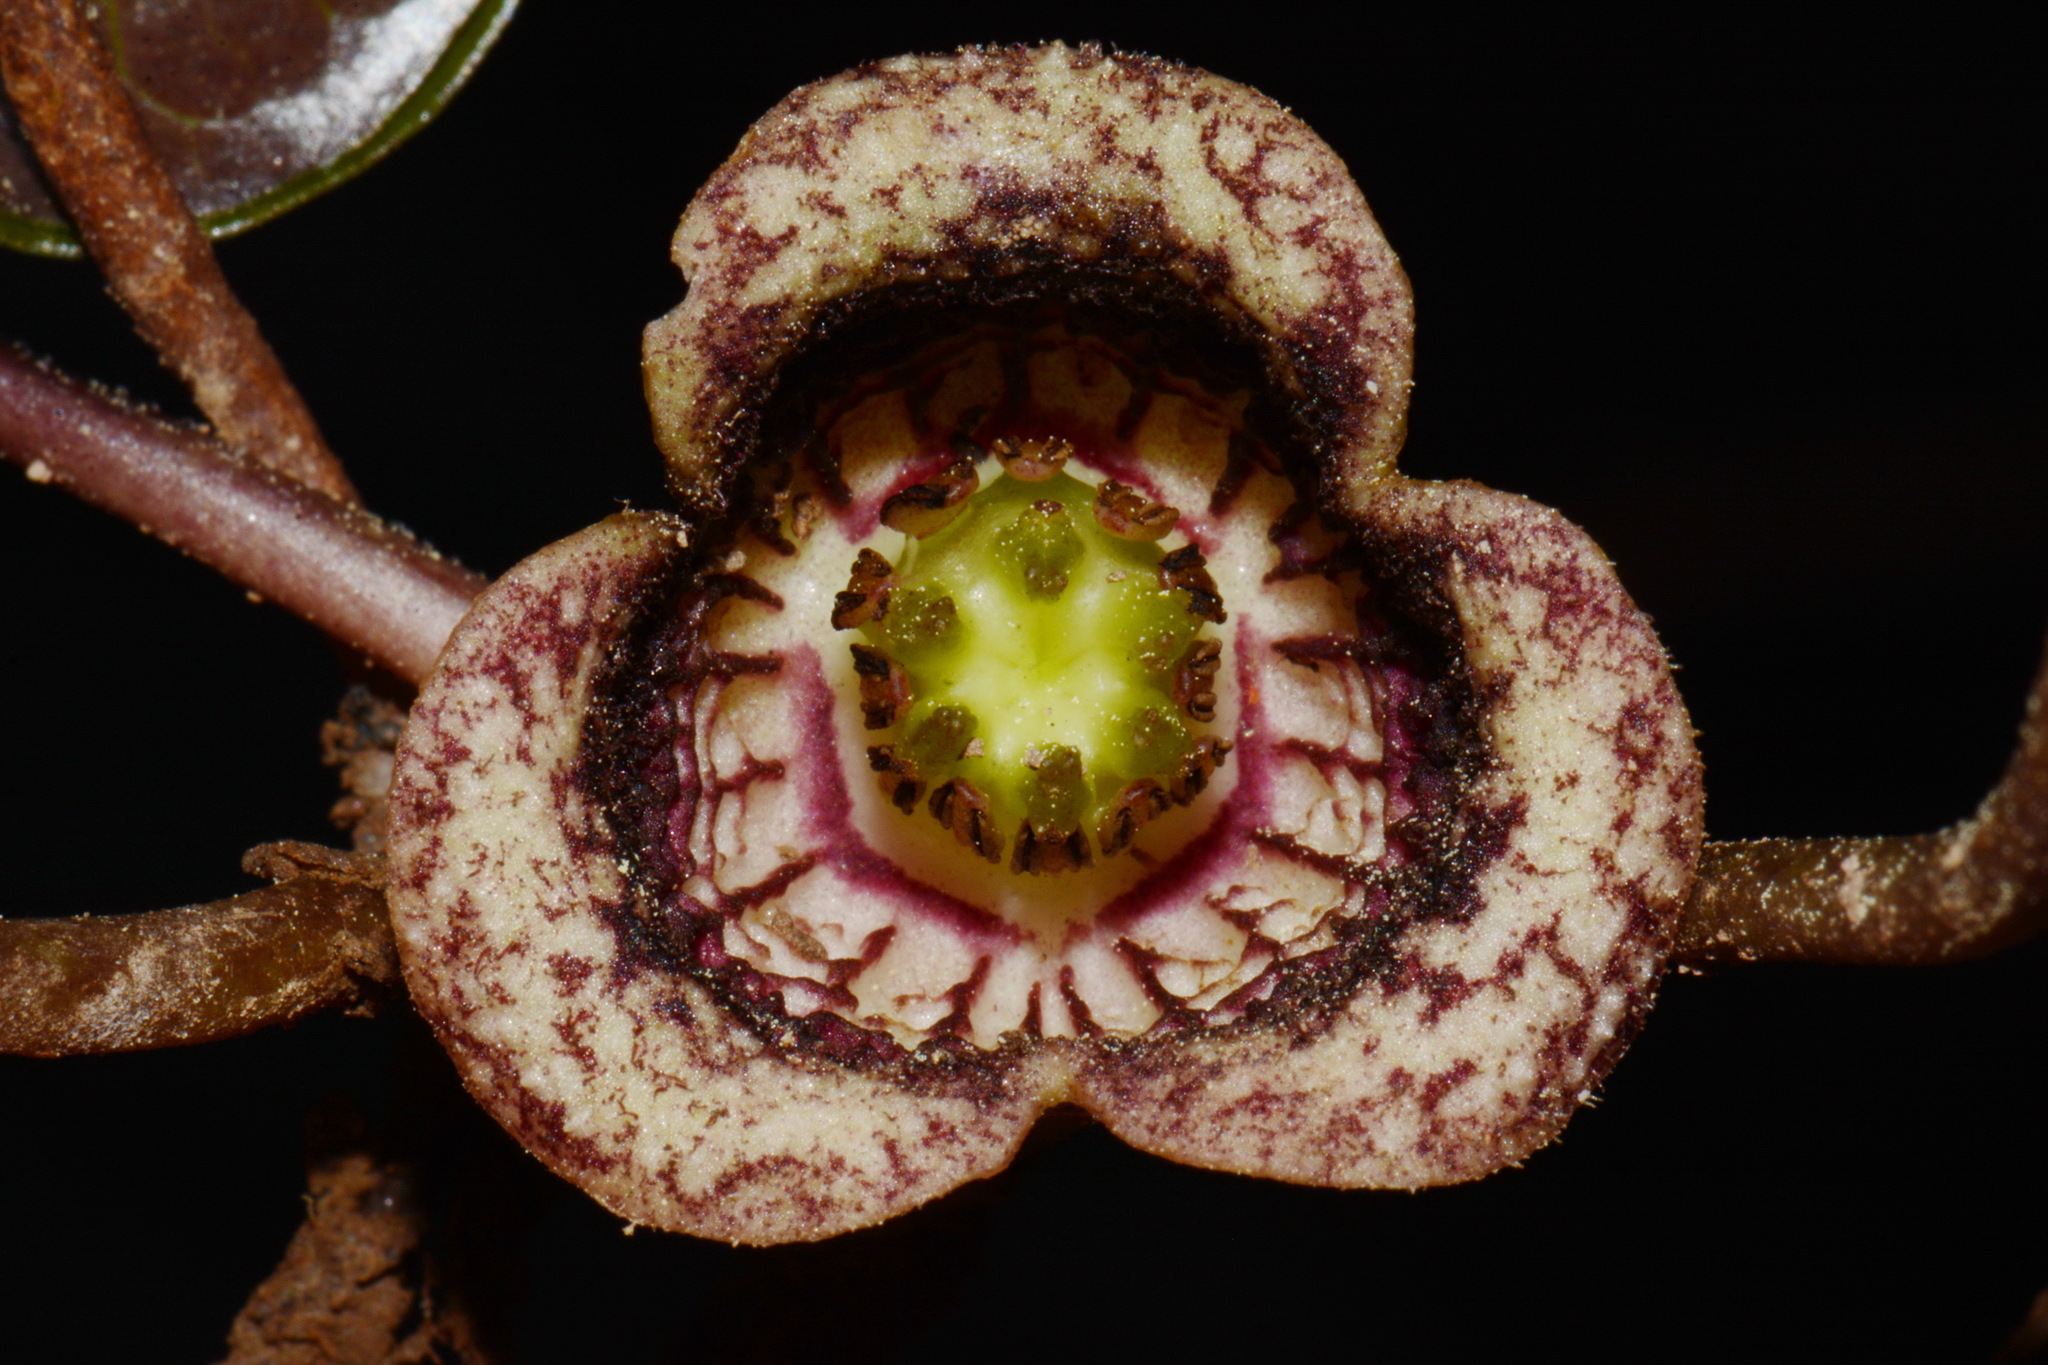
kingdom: Plantae
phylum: Tracheophyta
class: Magnoliopsida
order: Piperales
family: Aristolochiaceae
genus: Hexastylis
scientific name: Hexastylis heterophylla
